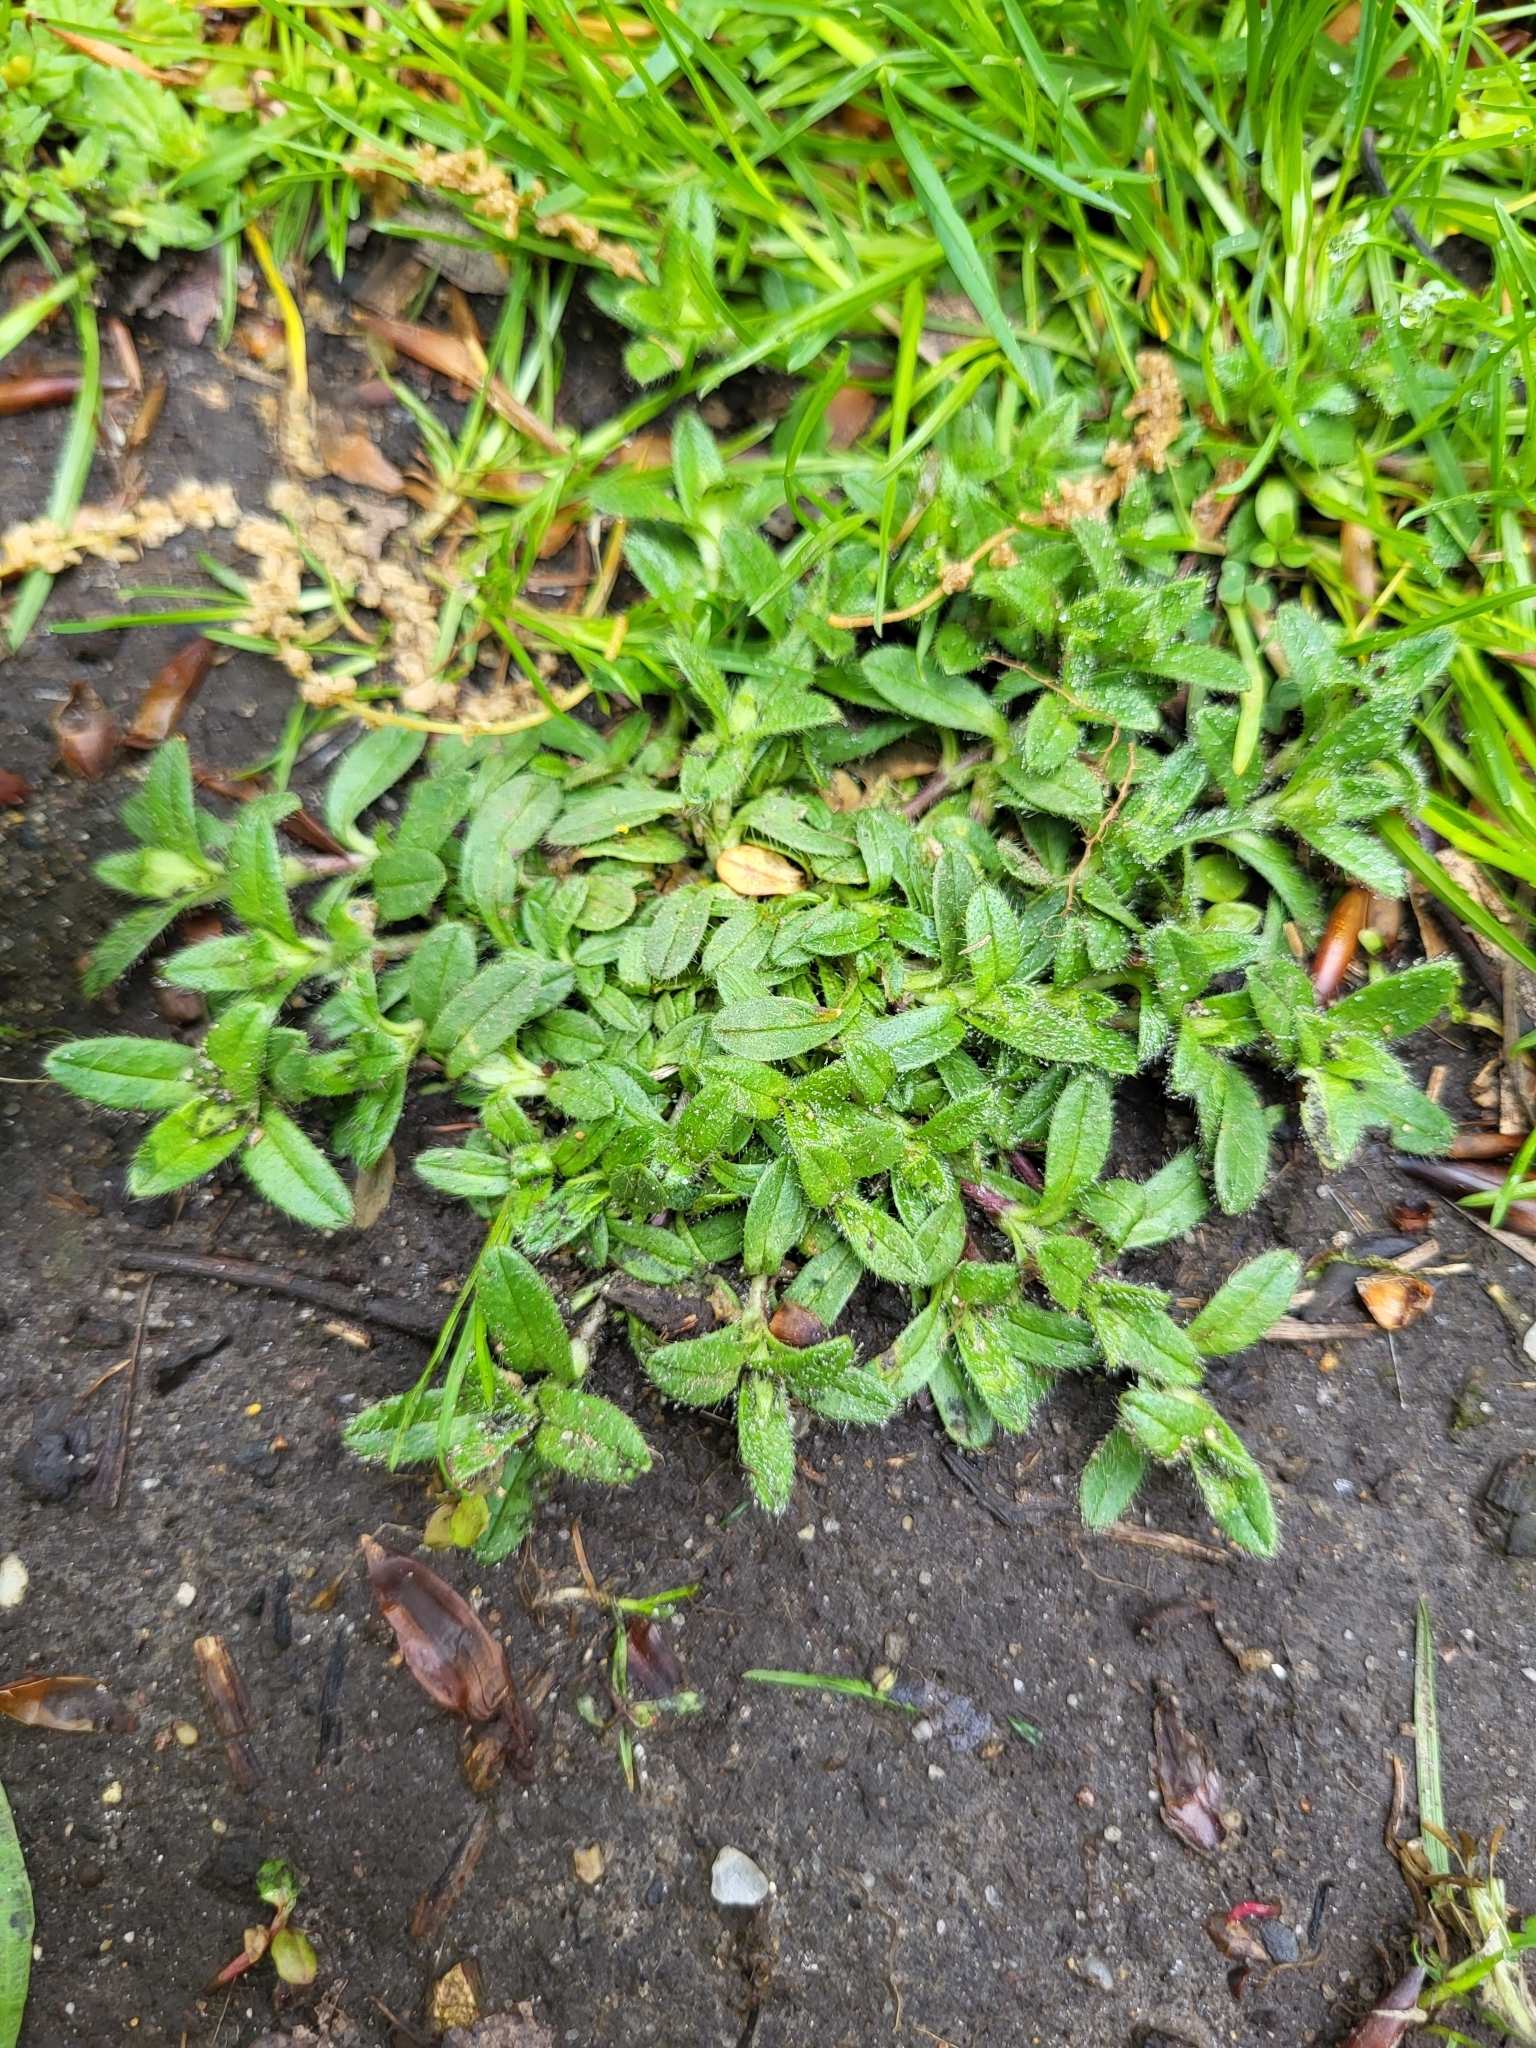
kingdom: Plantae
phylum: Tracheophyta
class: Magnoliopsida
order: Caryophyllales
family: Caryophyllaceae
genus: Cerastium
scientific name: Cerastium fontanum
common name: Common mouse-ear
